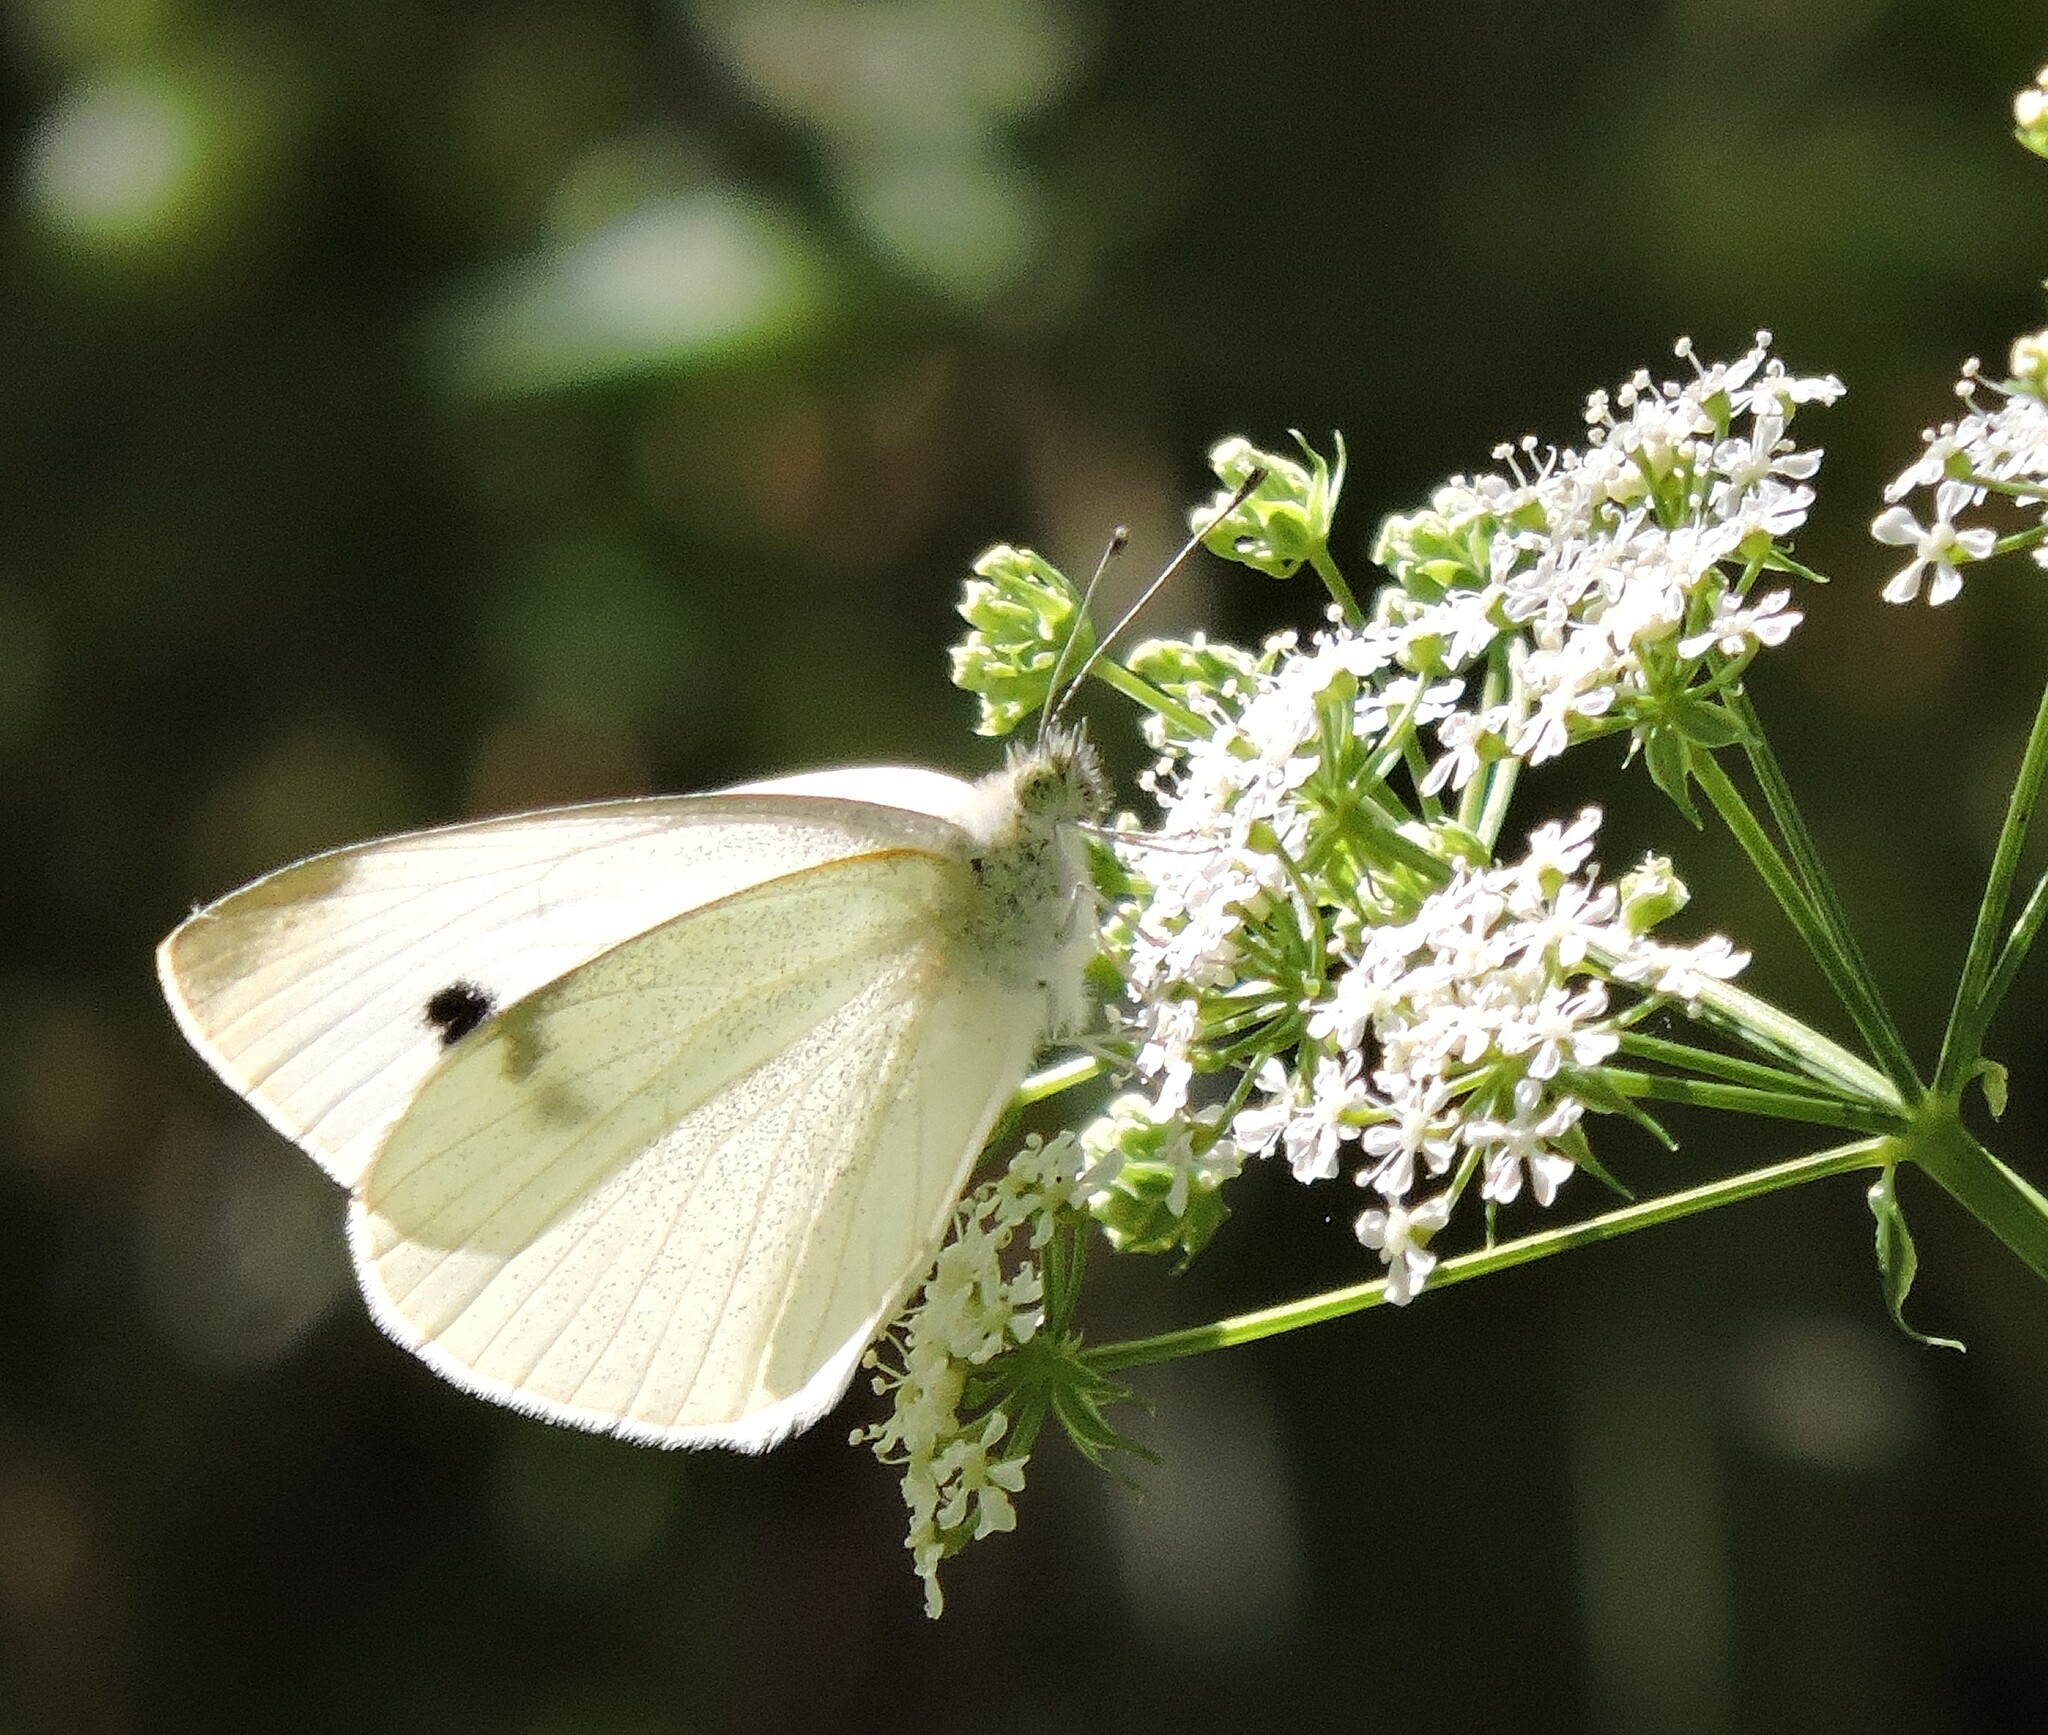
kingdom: Animalia
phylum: Arthropoda
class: Insecta
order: Lepidoptera
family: Pieridae
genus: Pieris
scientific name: Pieris rapae
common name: Small white
